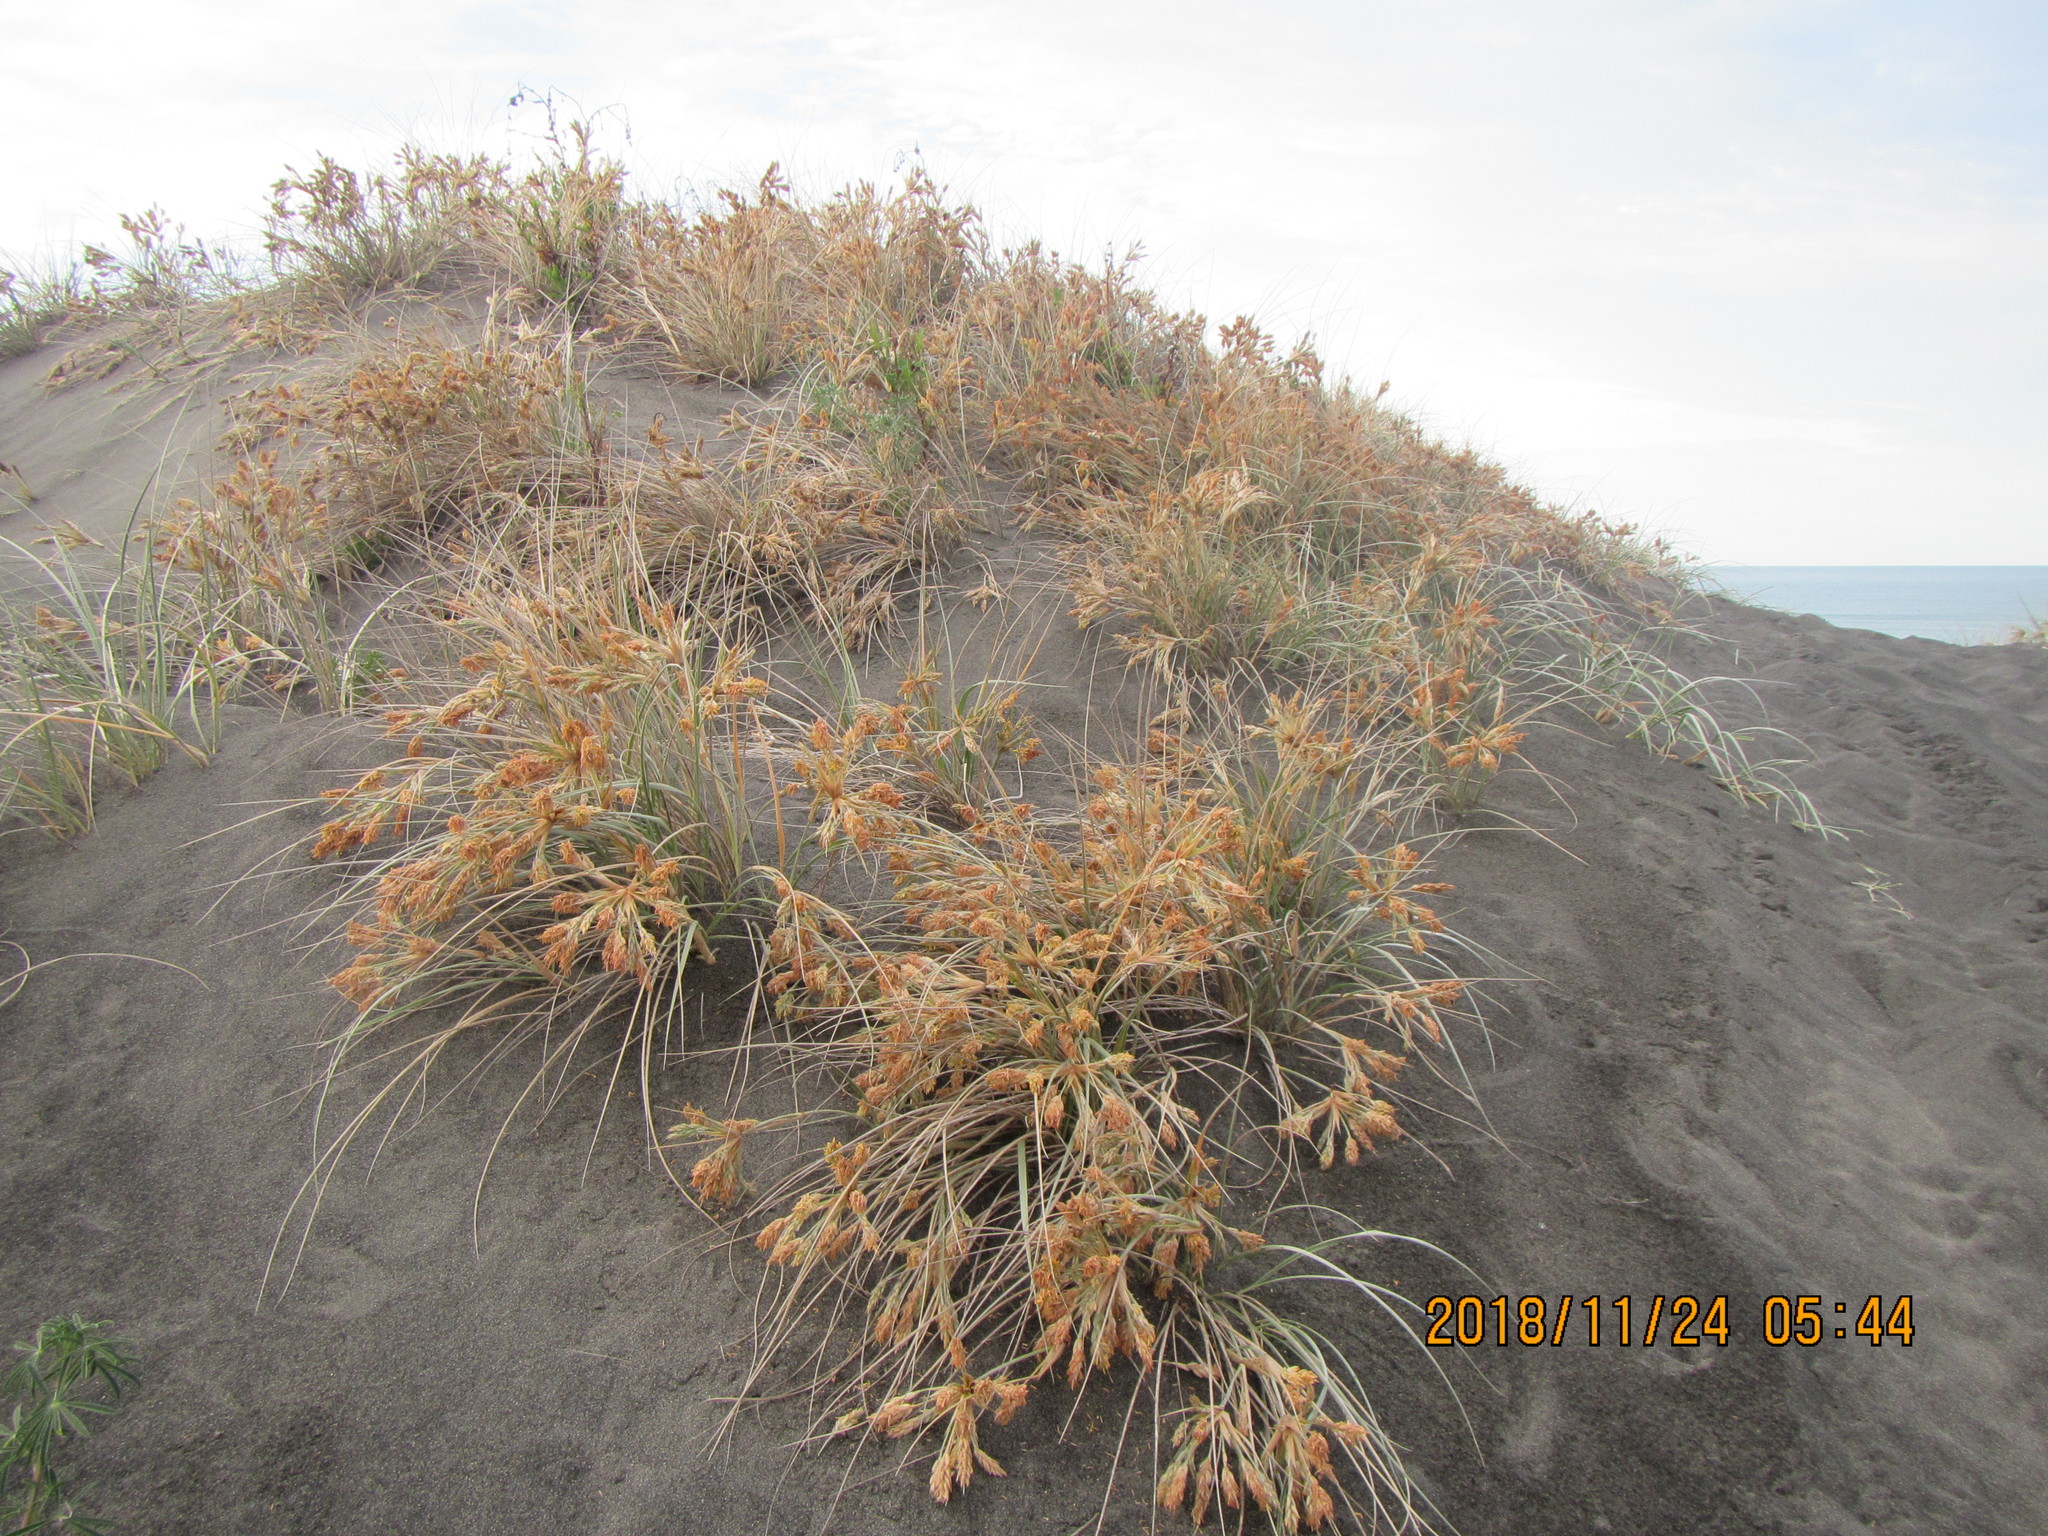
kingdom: Plantae
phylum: Tracheophyta
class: Liliopsida
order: Poales
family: Poaceae
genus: Spinifex
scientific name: Spinifex sericeus
